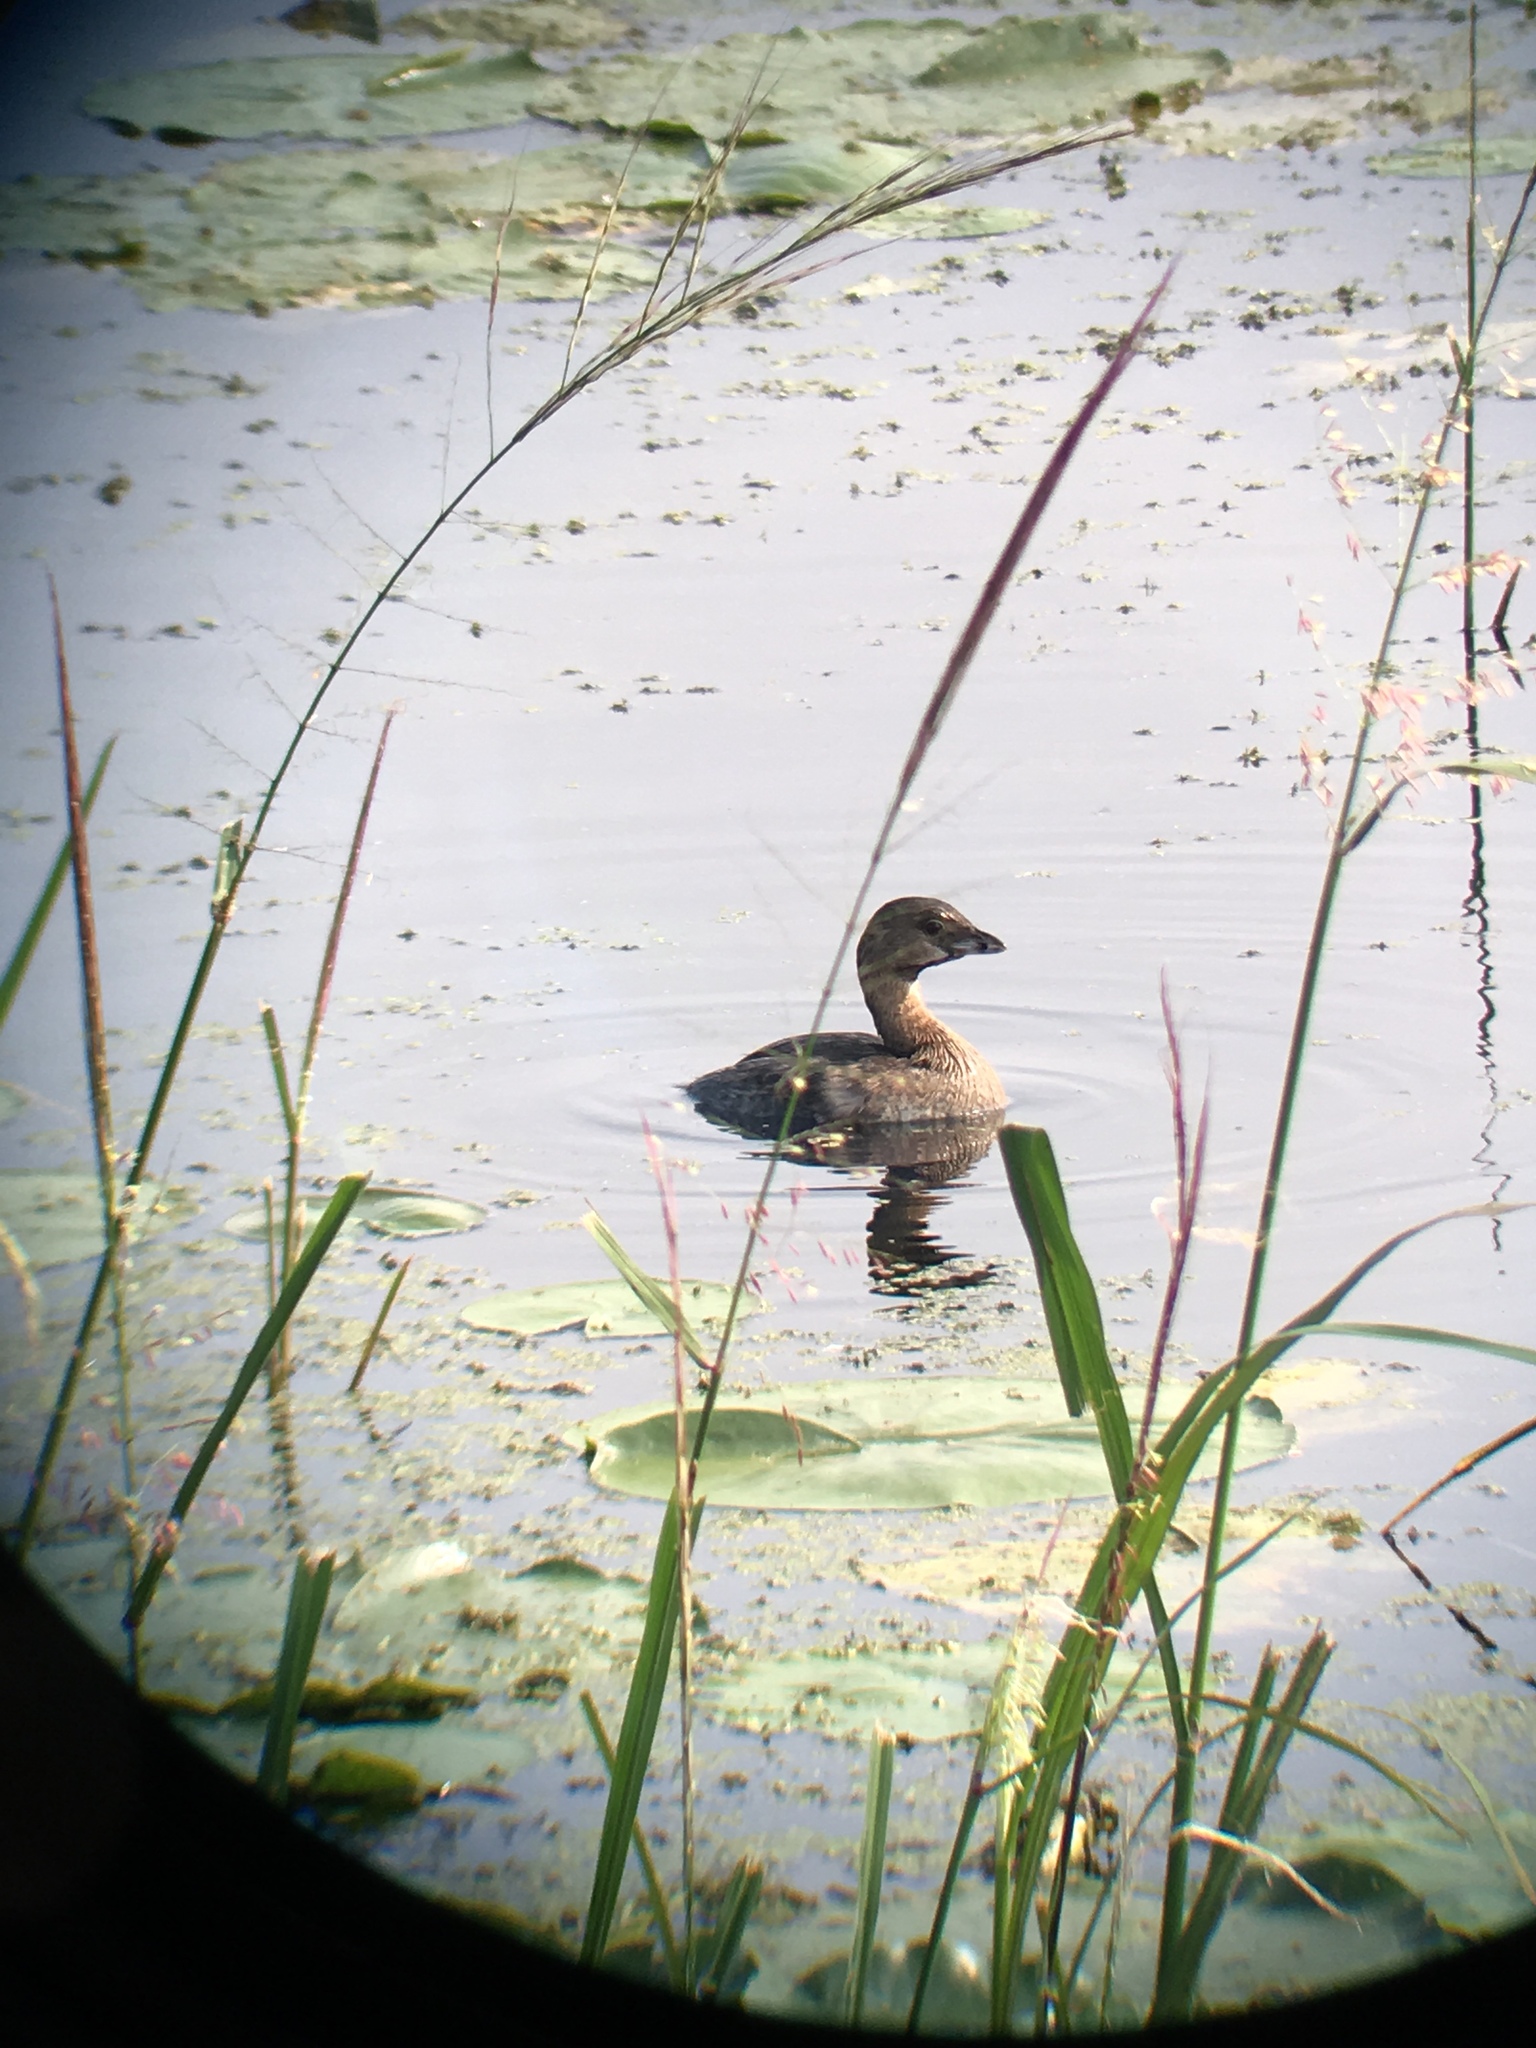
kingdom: Animalia
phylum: Chordata
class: Aves
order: Podicipediformes
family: Podicipedidae
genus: Podilymbus
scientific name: Podilymbus podiceps
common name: Pied-billed grebe
